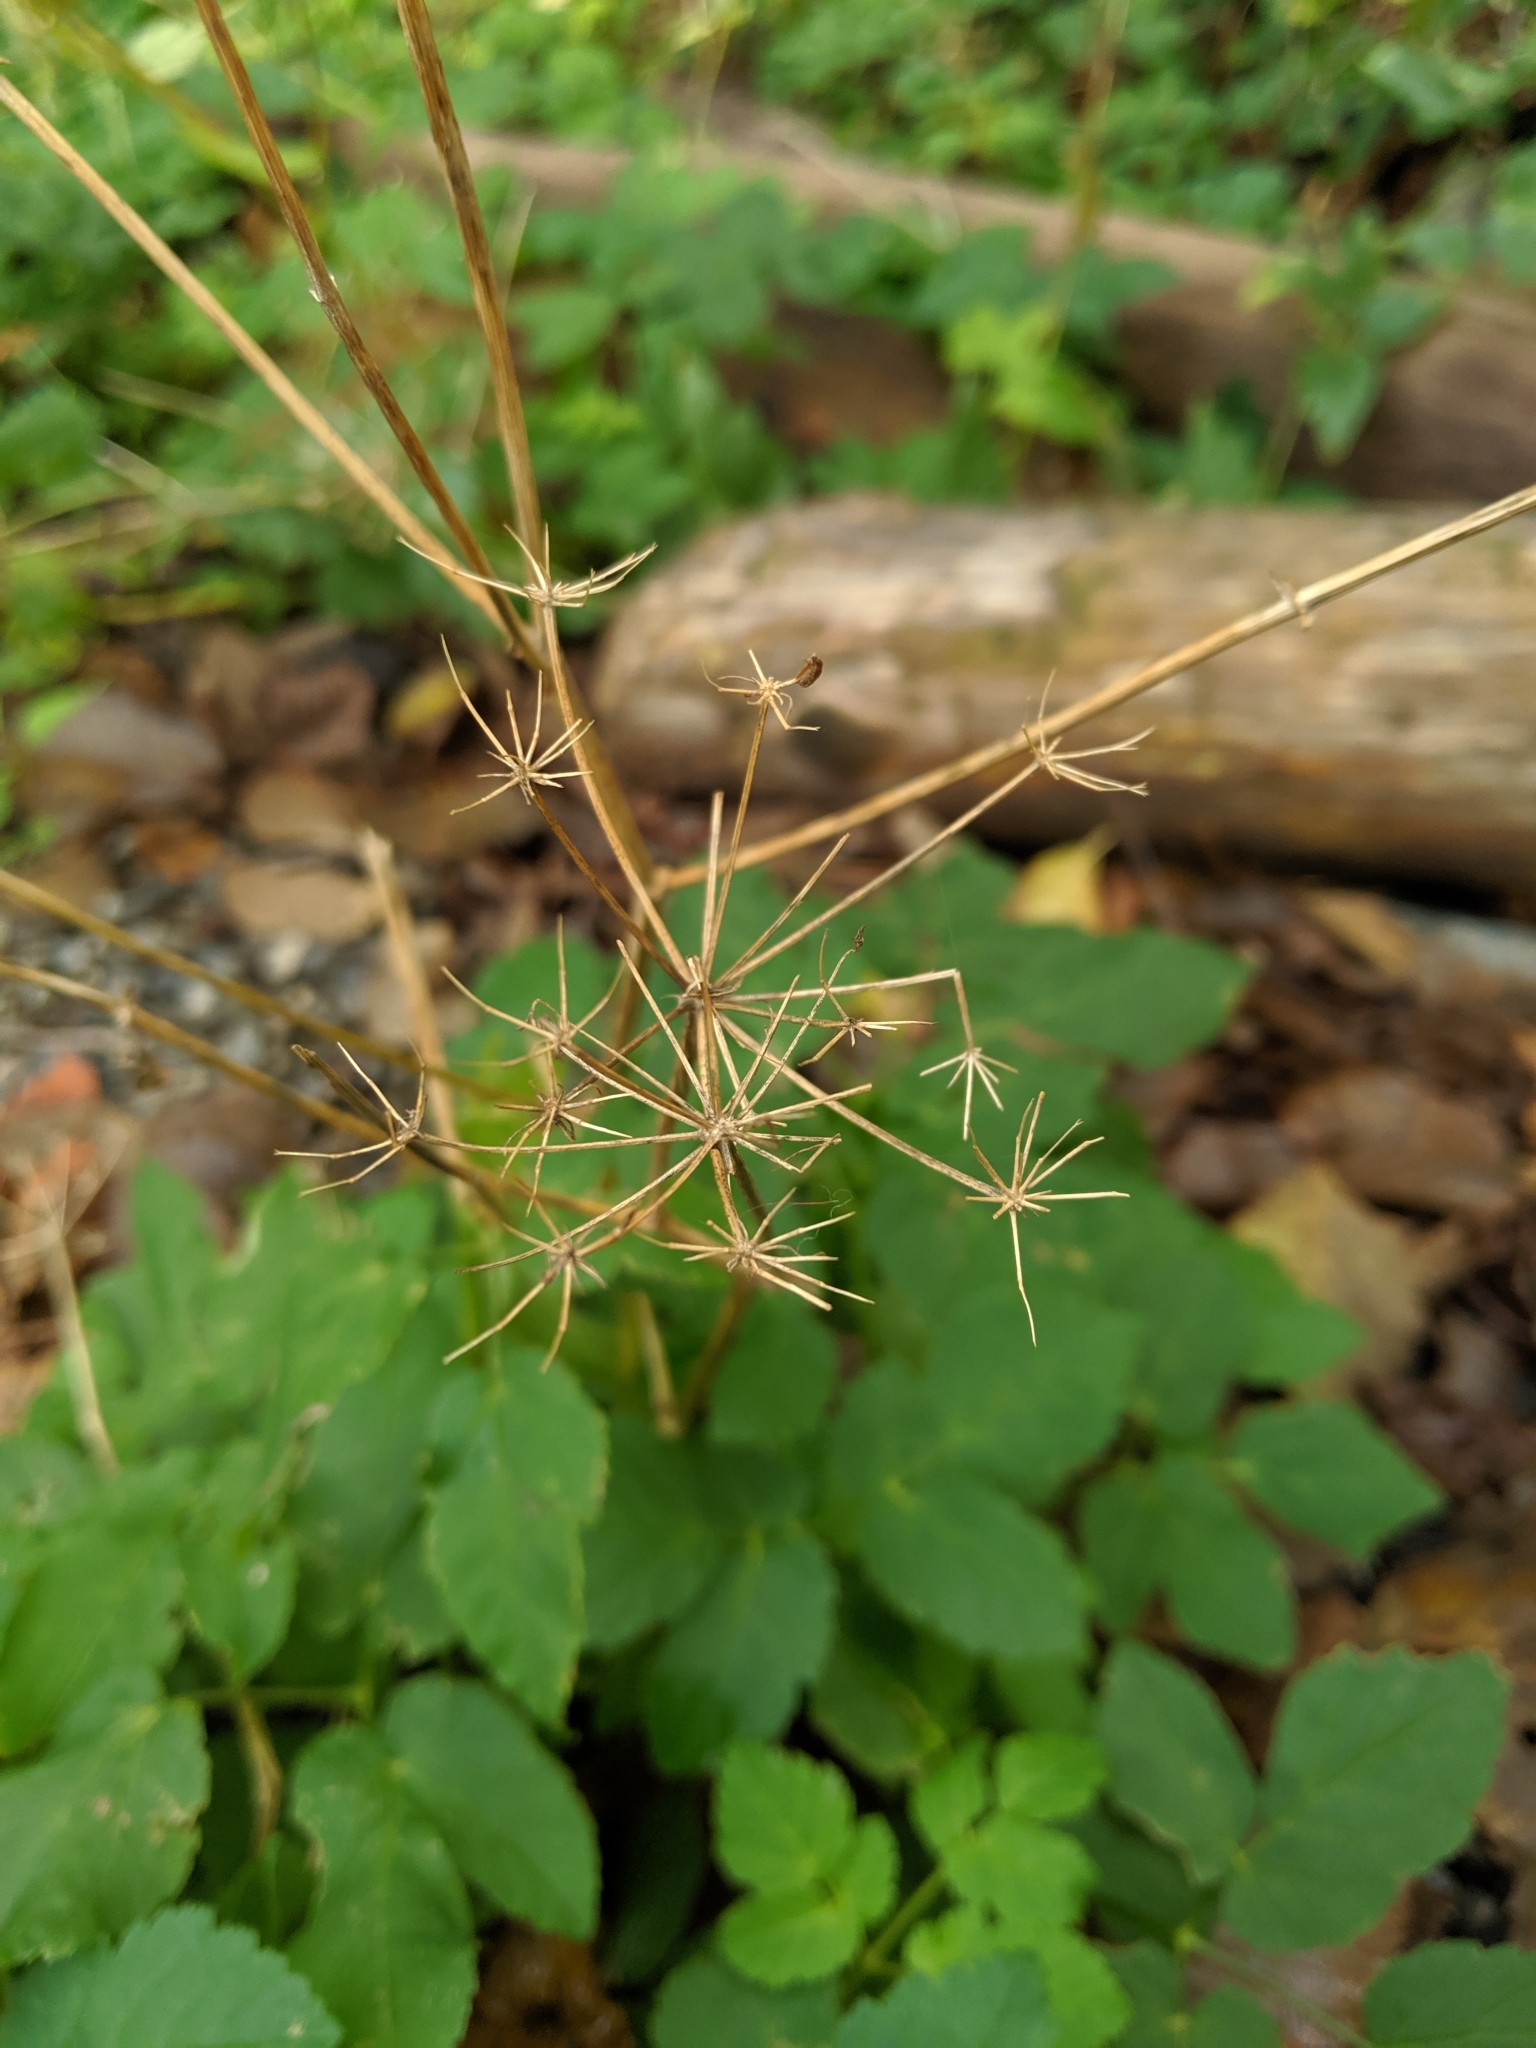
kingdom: Plantae
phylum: Tracheophyta
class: Magnoliopsida
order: Apiales
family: Apiaceae
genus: Aegopodium
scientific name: Aegopodium podagraria
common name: Ground-elder
